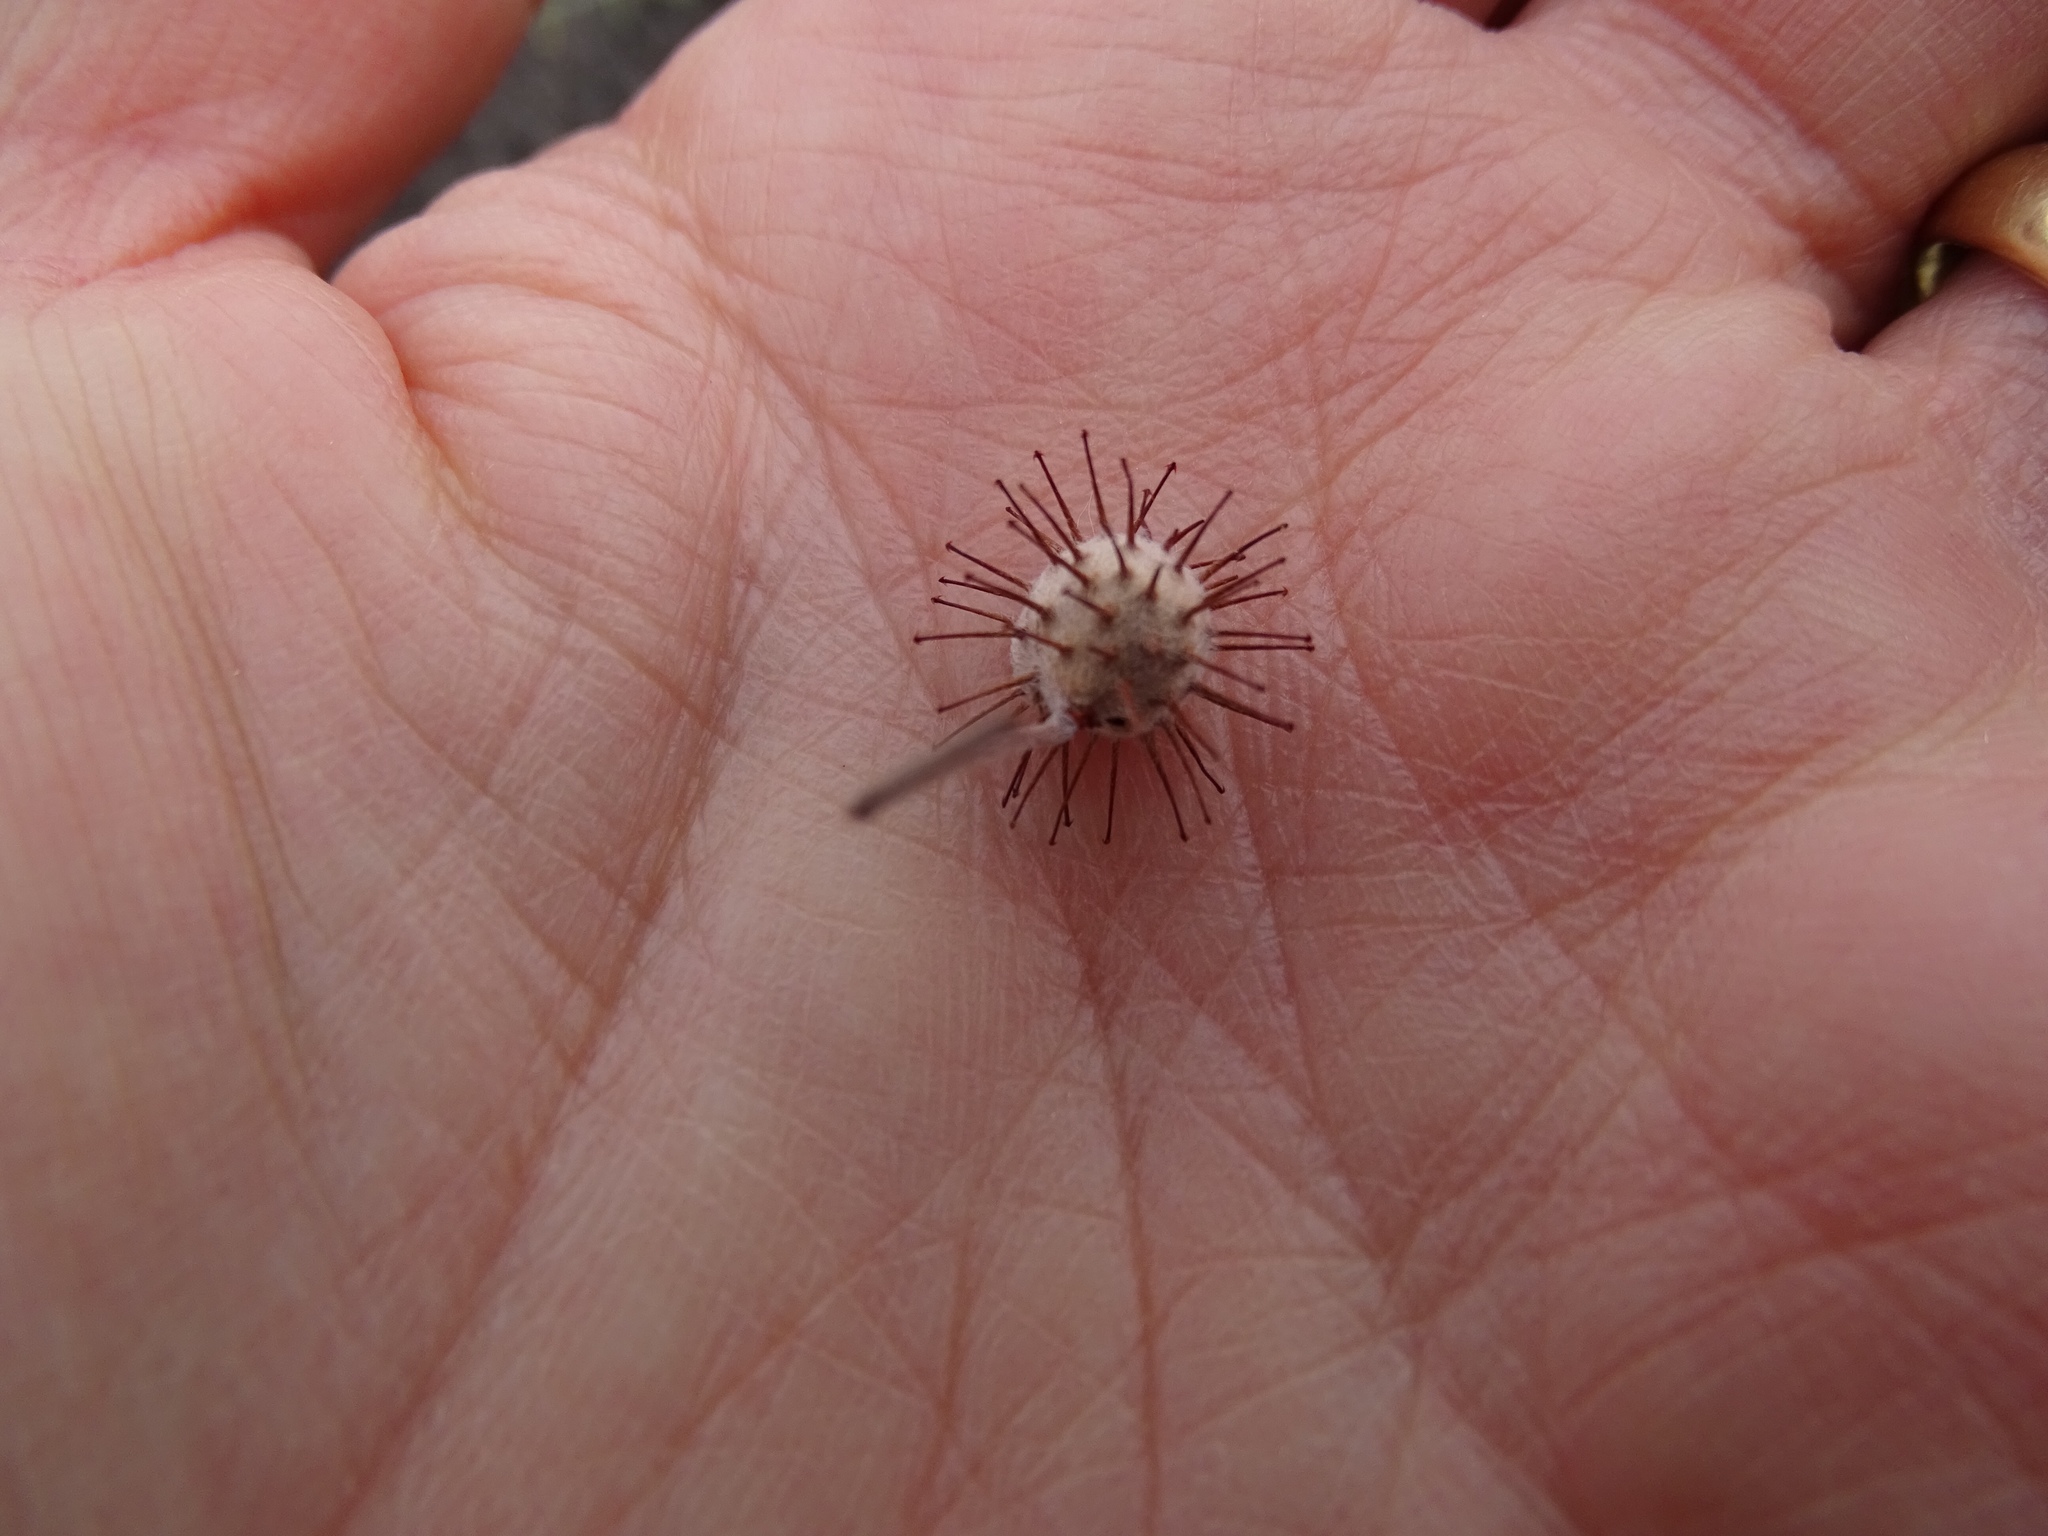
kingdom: Plantae
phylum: Tracheophyta
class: Magnoliopsida
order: Zygophyllales
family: Krameriaceae
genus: Krameria
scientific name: Krameria bicolor
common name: White ratany
